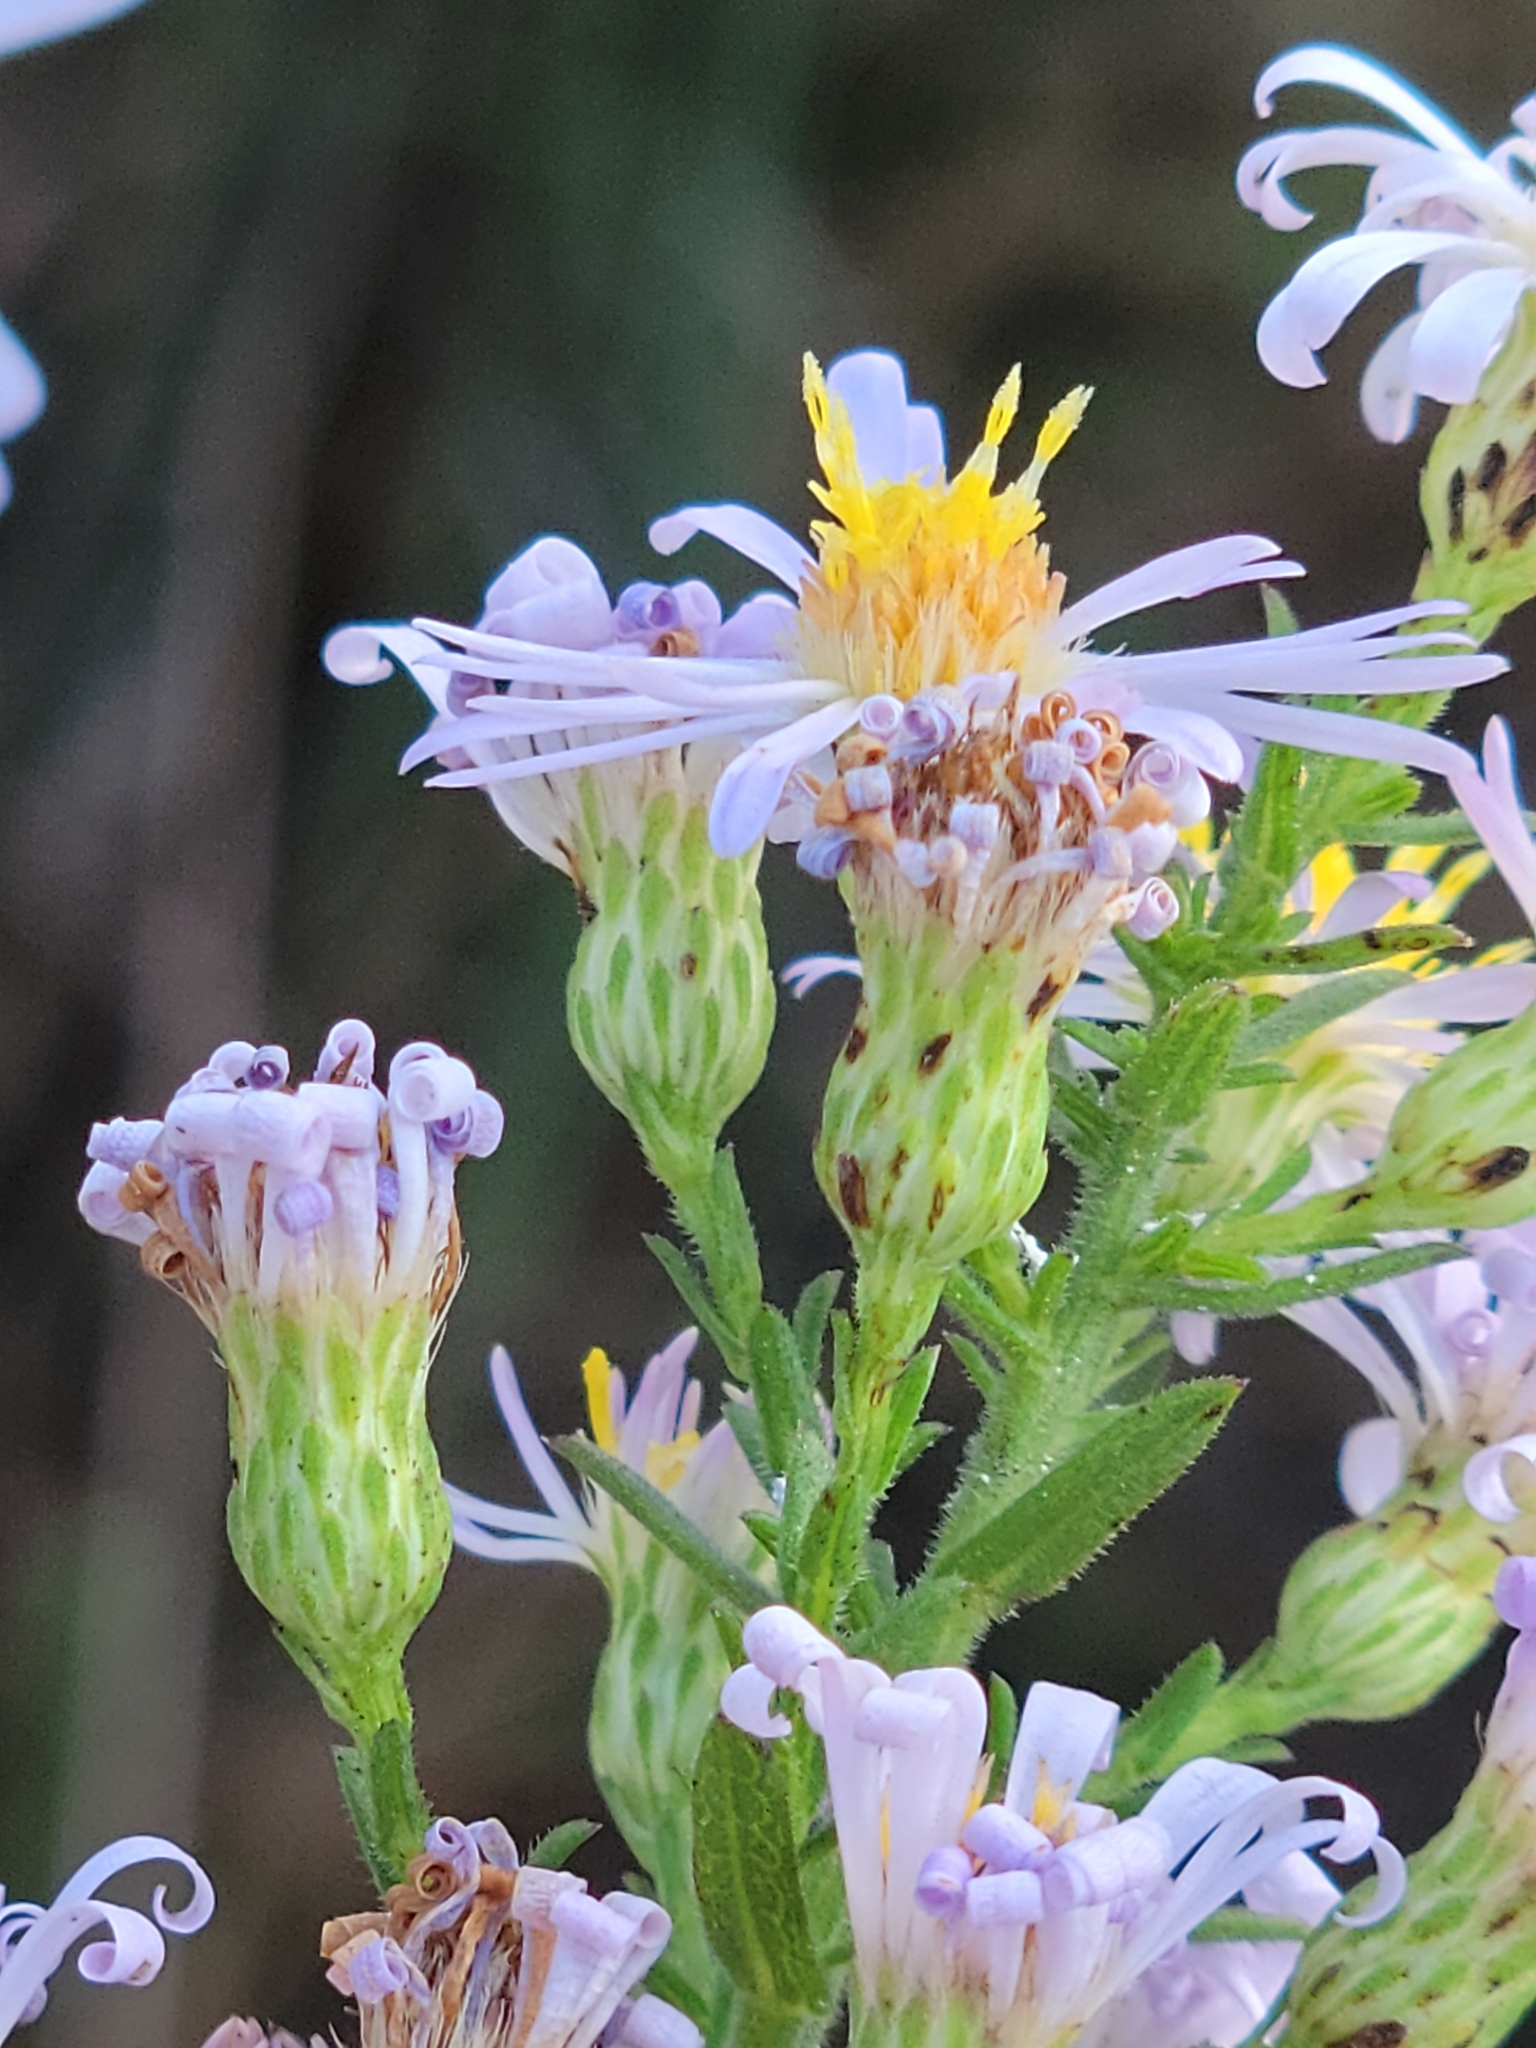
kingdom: Plantae
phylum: Tracheophyta
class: Magnoliopsida
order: Asterales
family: Asteraceae
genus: Symphyotrichum
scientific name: Symphyotrichum fontinale
